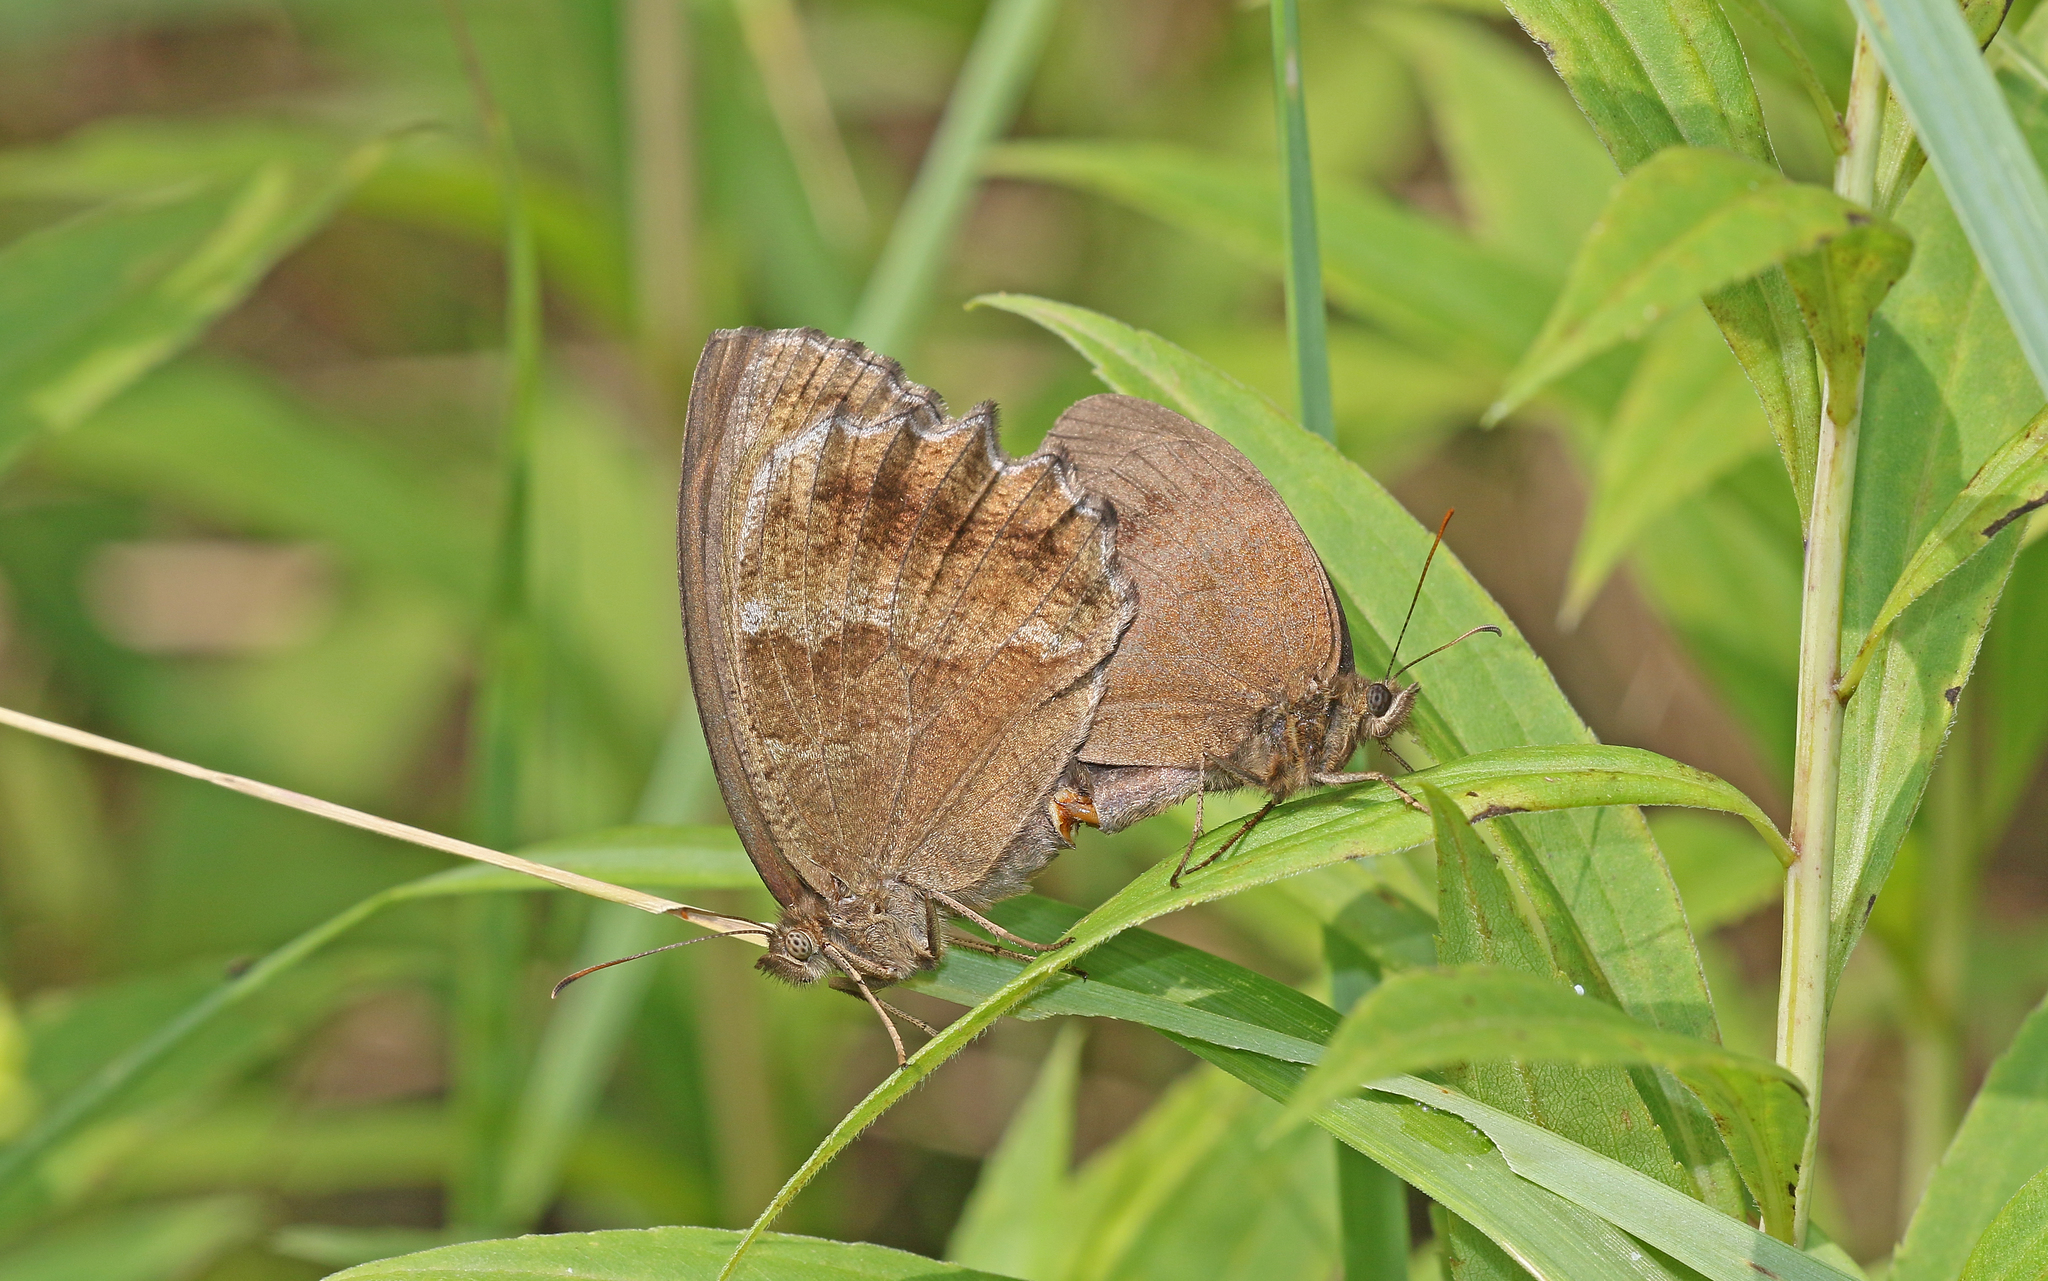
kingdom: Animalia
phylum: Arthropoda
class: Insecta
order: Lepidoptera
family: Nymphalidae
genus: Minois
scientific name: Minois dryas
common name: Dryad
